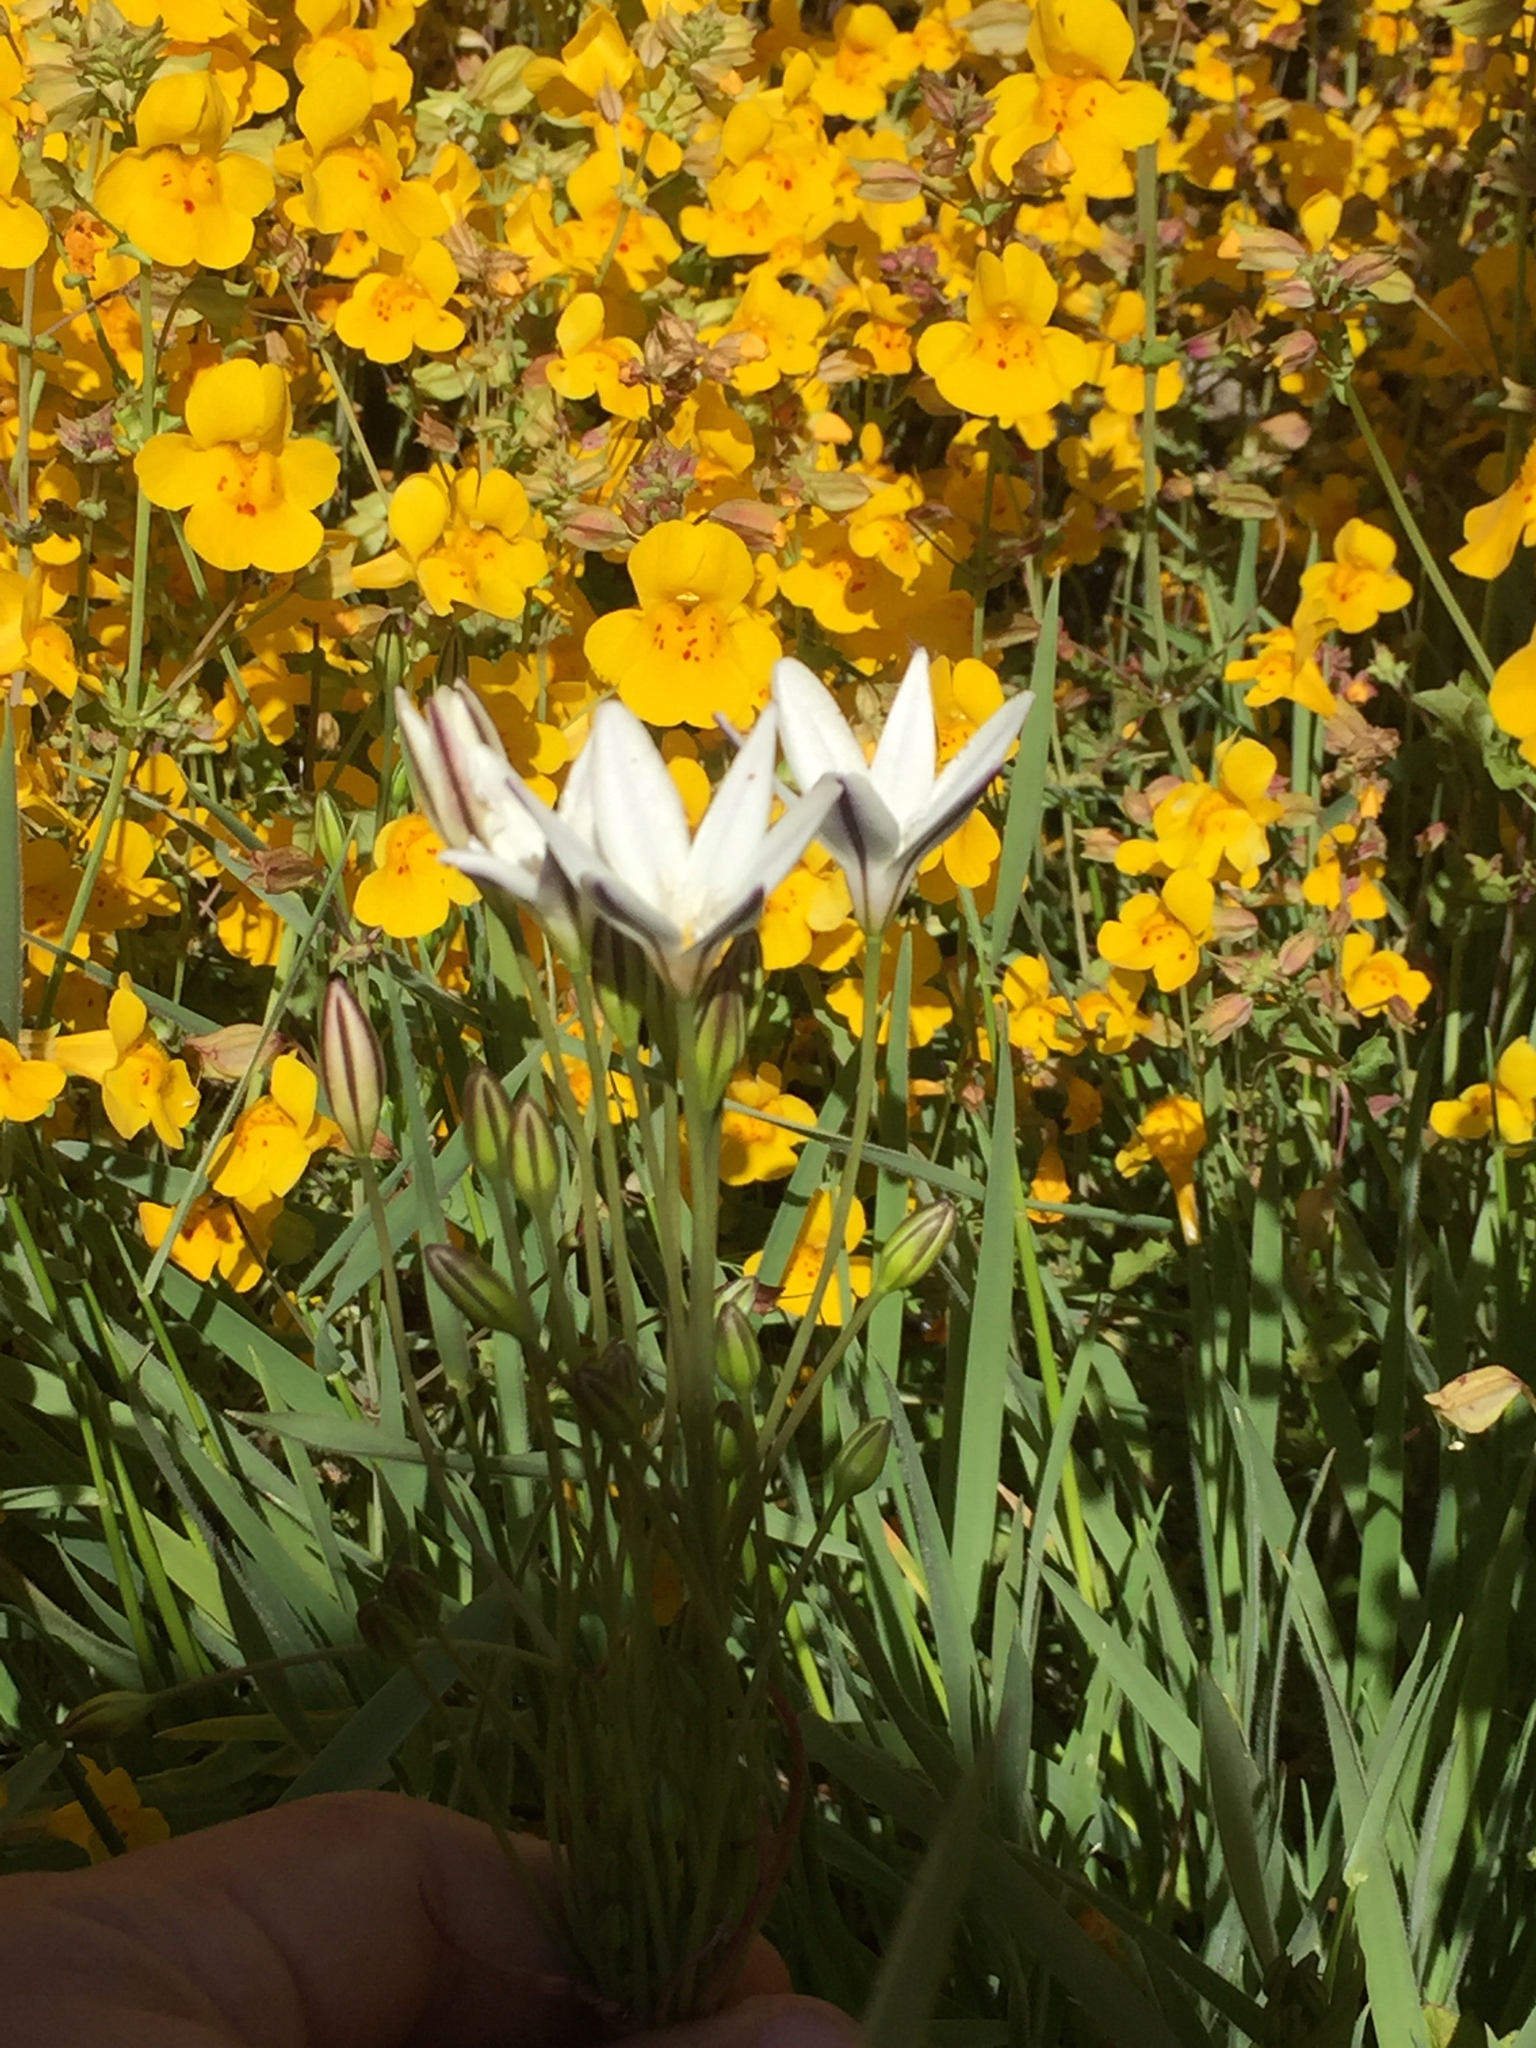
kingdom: Plantae
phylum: Tracheophyta
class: Liliopsida
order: Asparagales
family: Asparagaceae
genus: Triteleia
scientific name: Triteleia peduncularis
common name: Long-ray brodiaea
